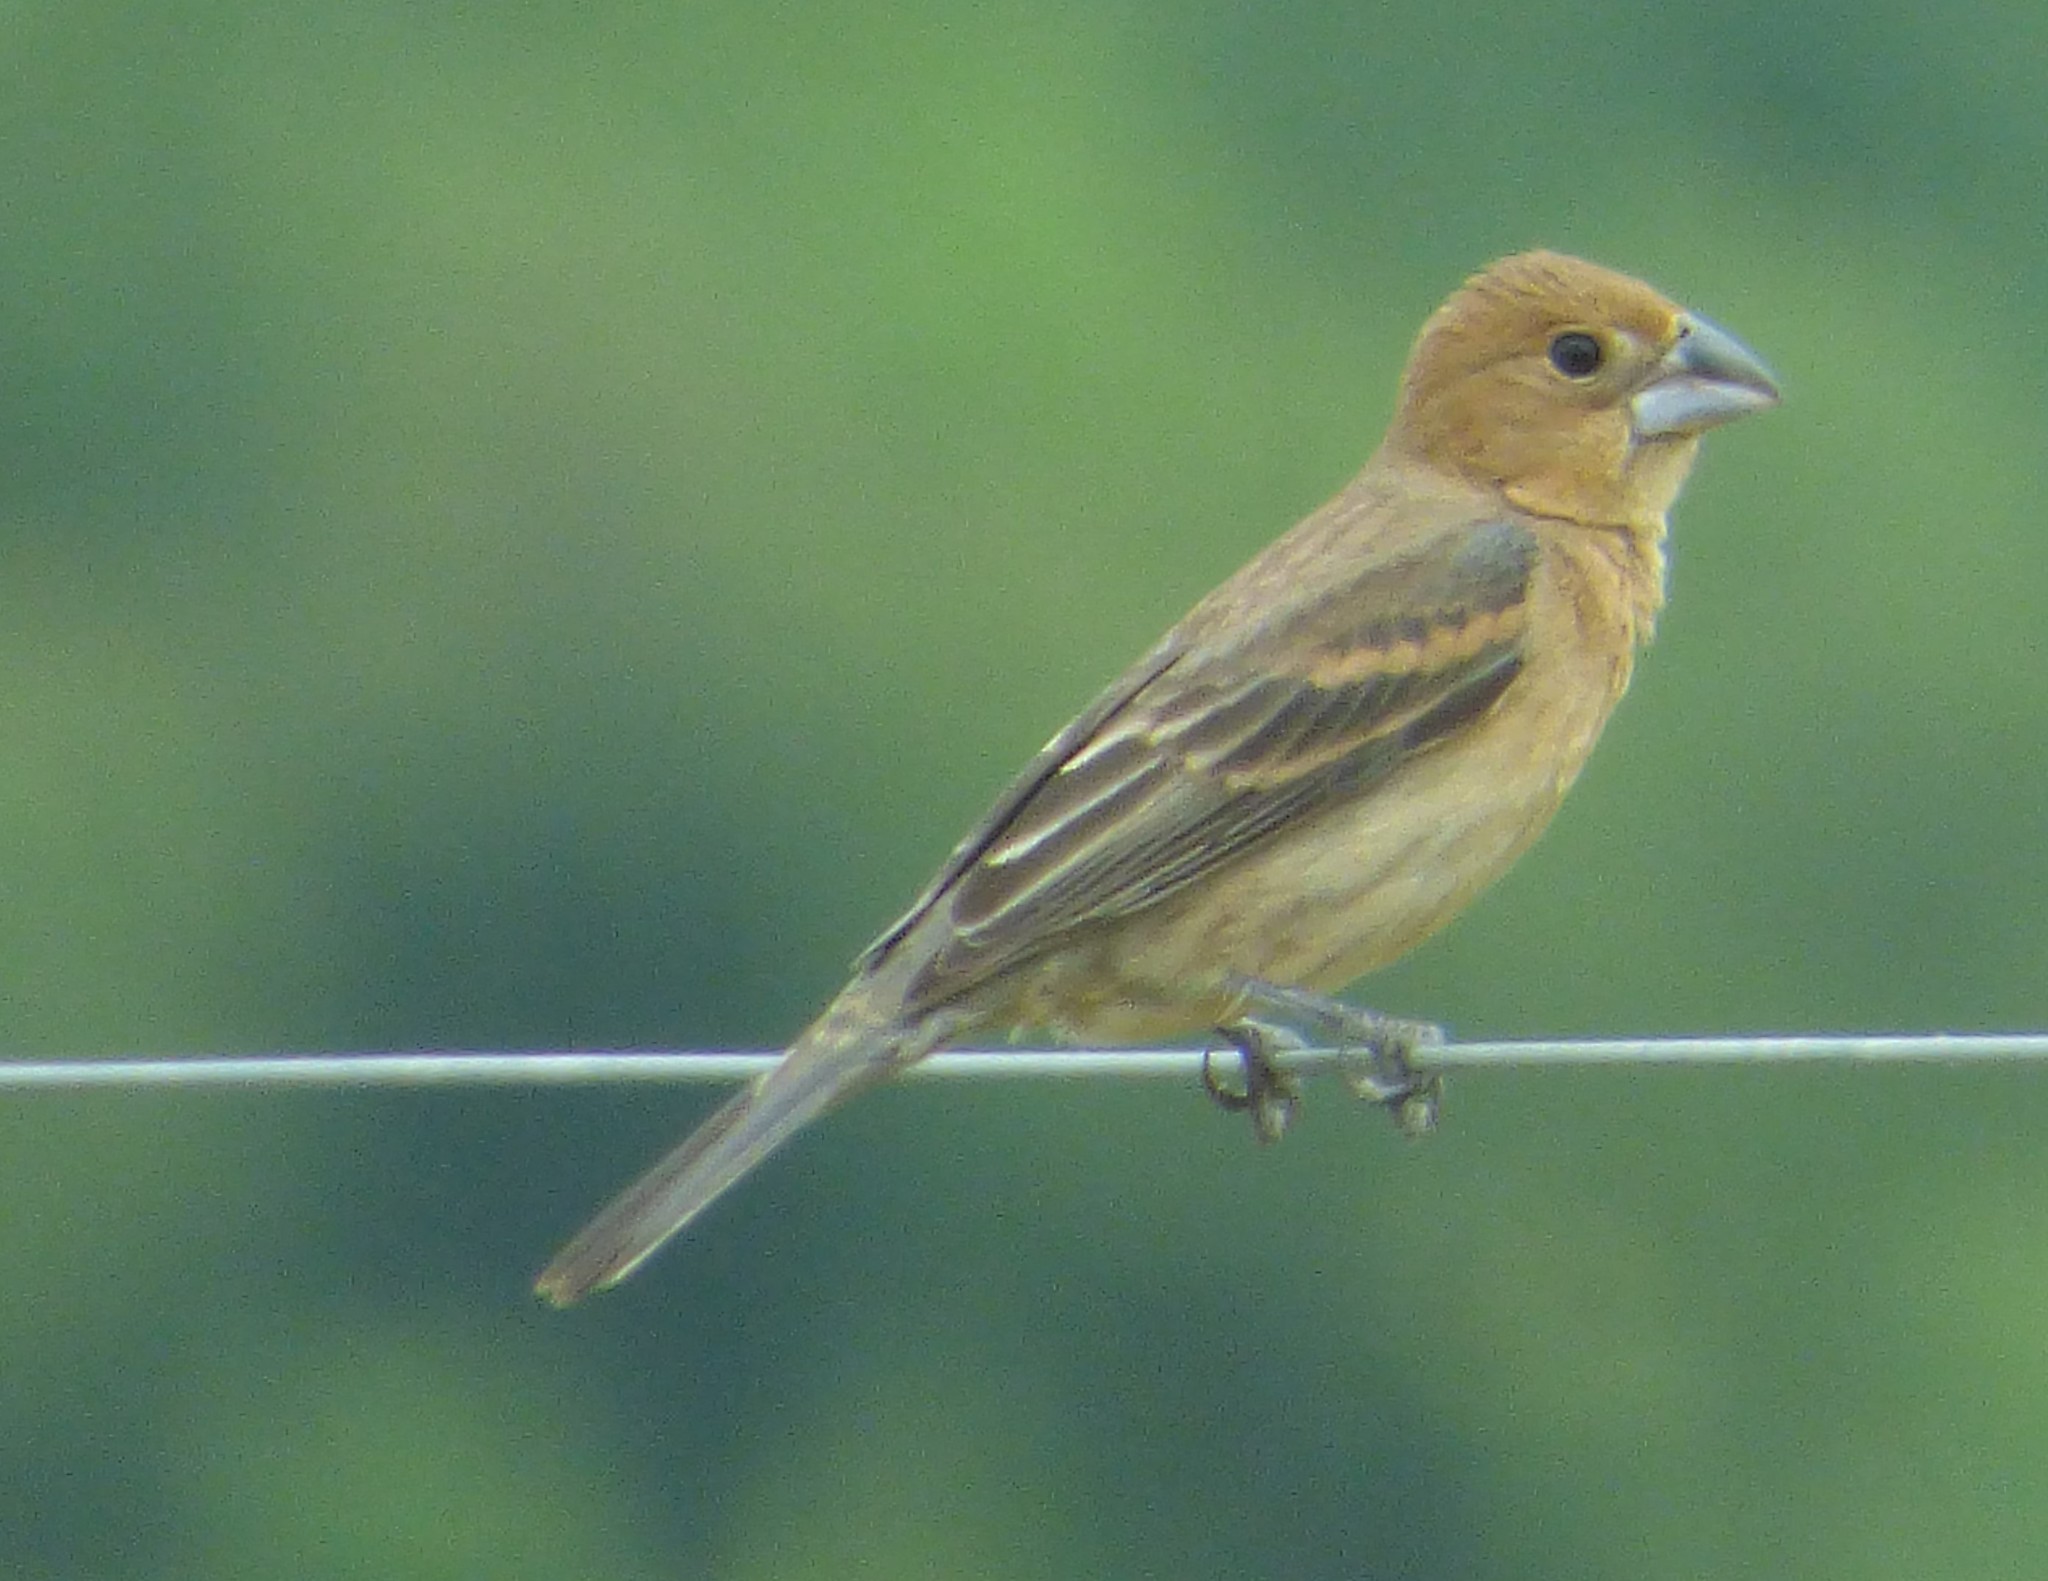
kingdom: Animalia
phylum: Chordata
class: Aves
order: Passeriformes
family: Cardinalidae
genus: Passerina
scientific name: Passerina caerulea
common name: Blue grosbeak
